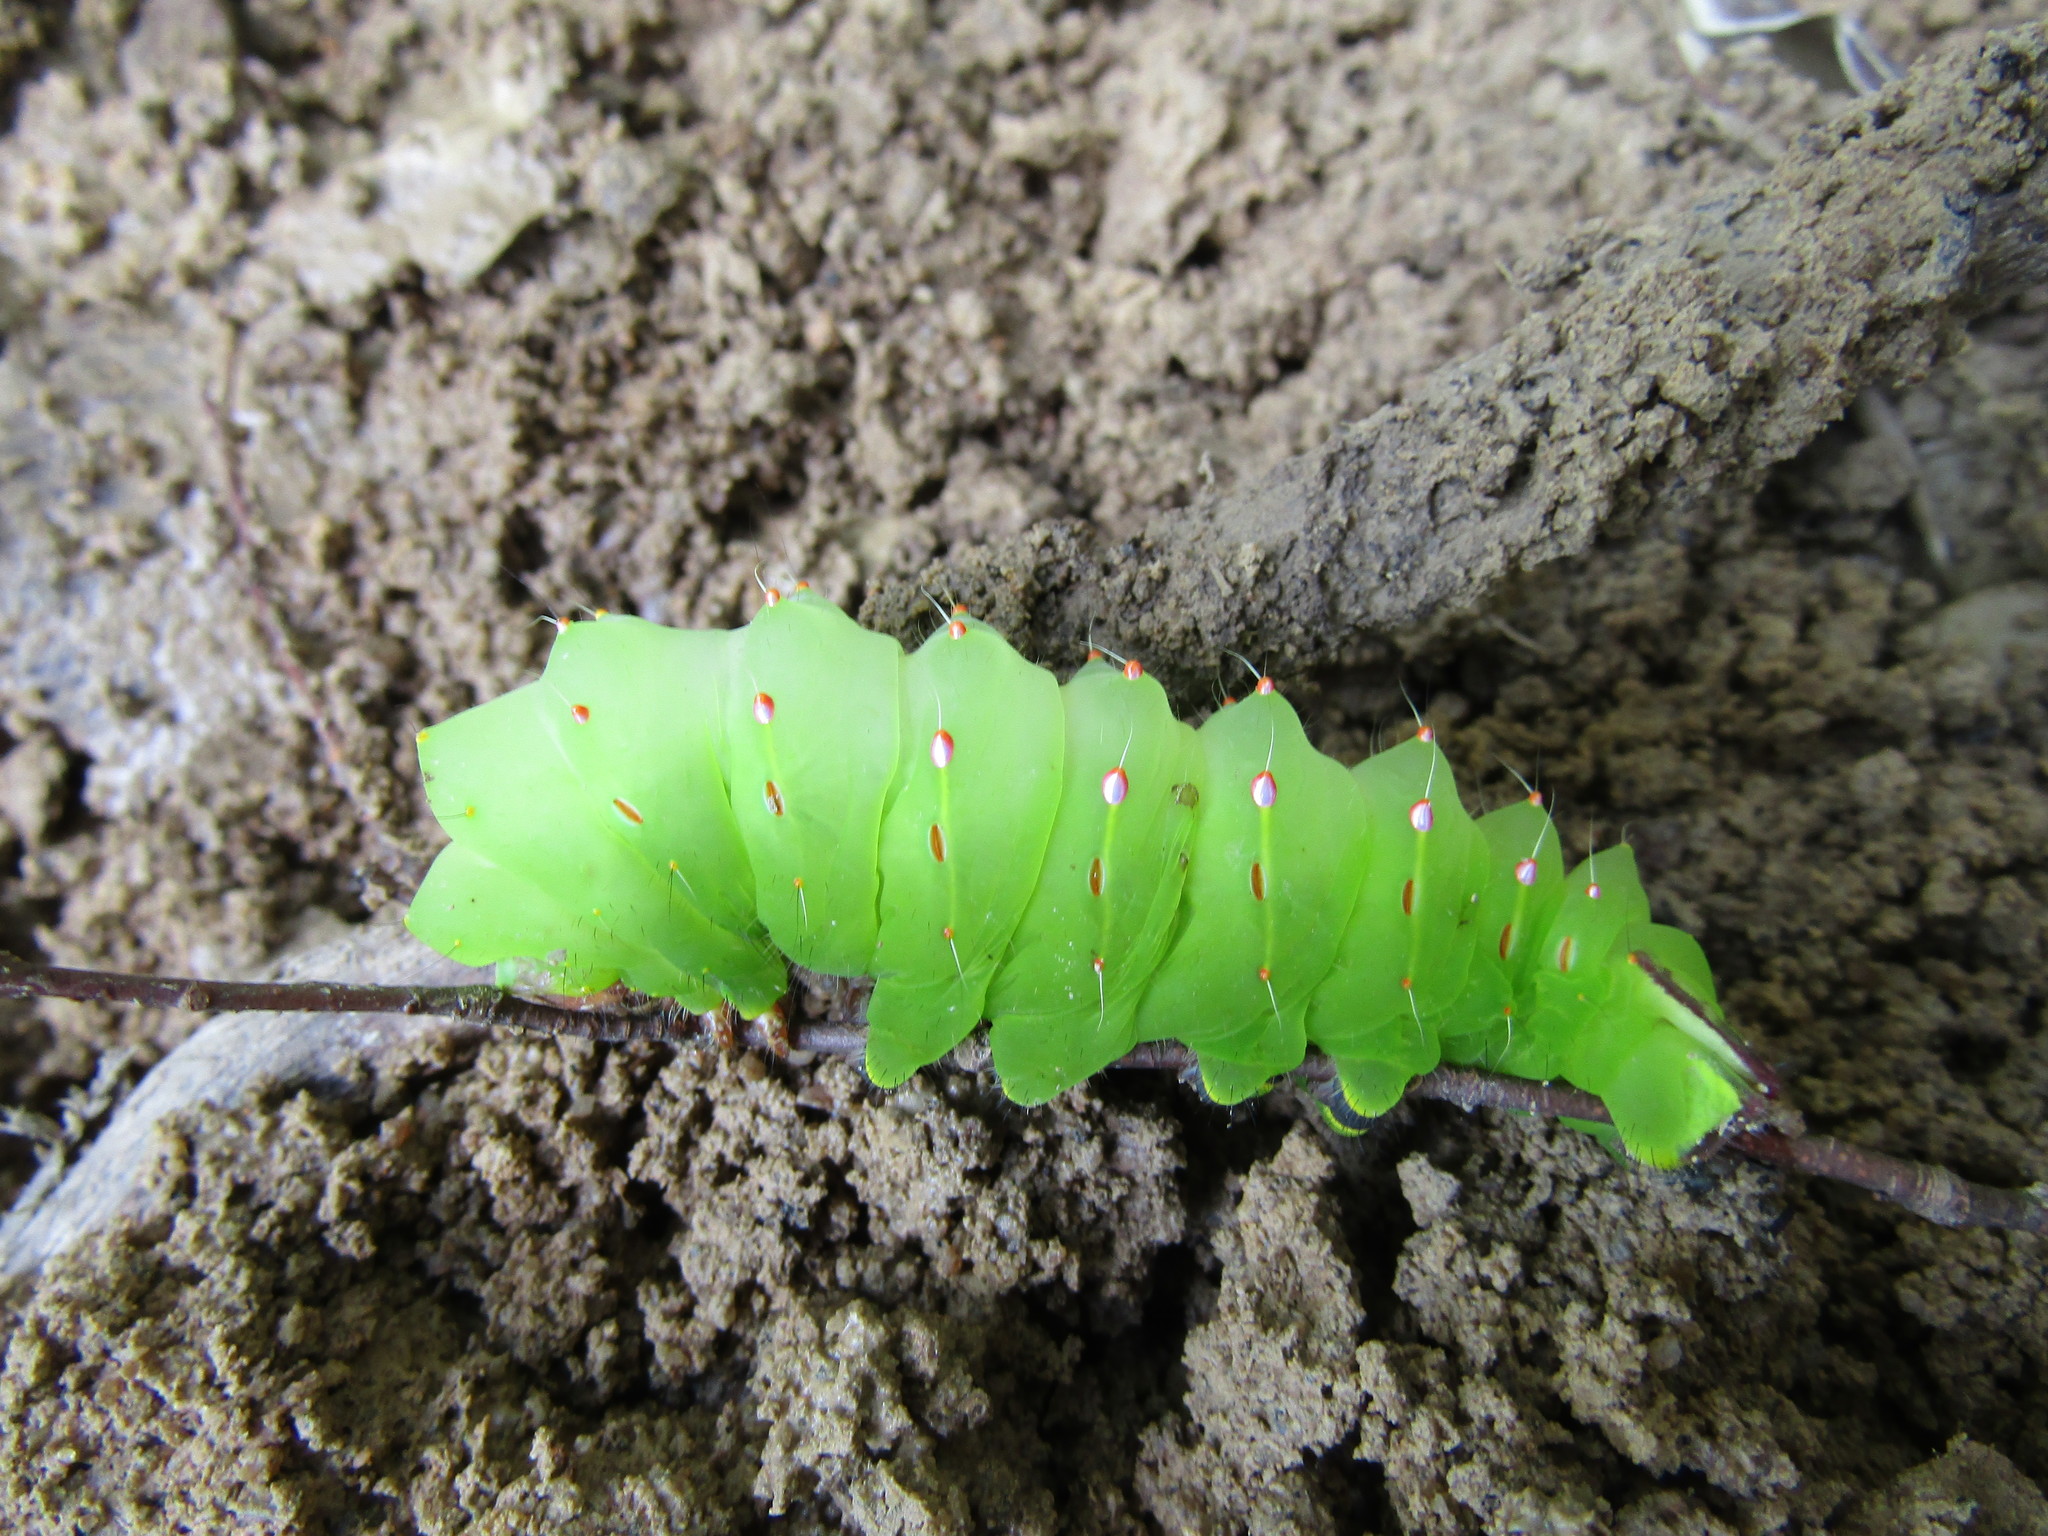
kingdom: Animalia
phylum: Arthropoda
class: Insecta
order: Lepidoptera
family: Saturniidae
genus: Antheraea
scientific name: Antheraea polyphemus
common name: Polyphemus moth
